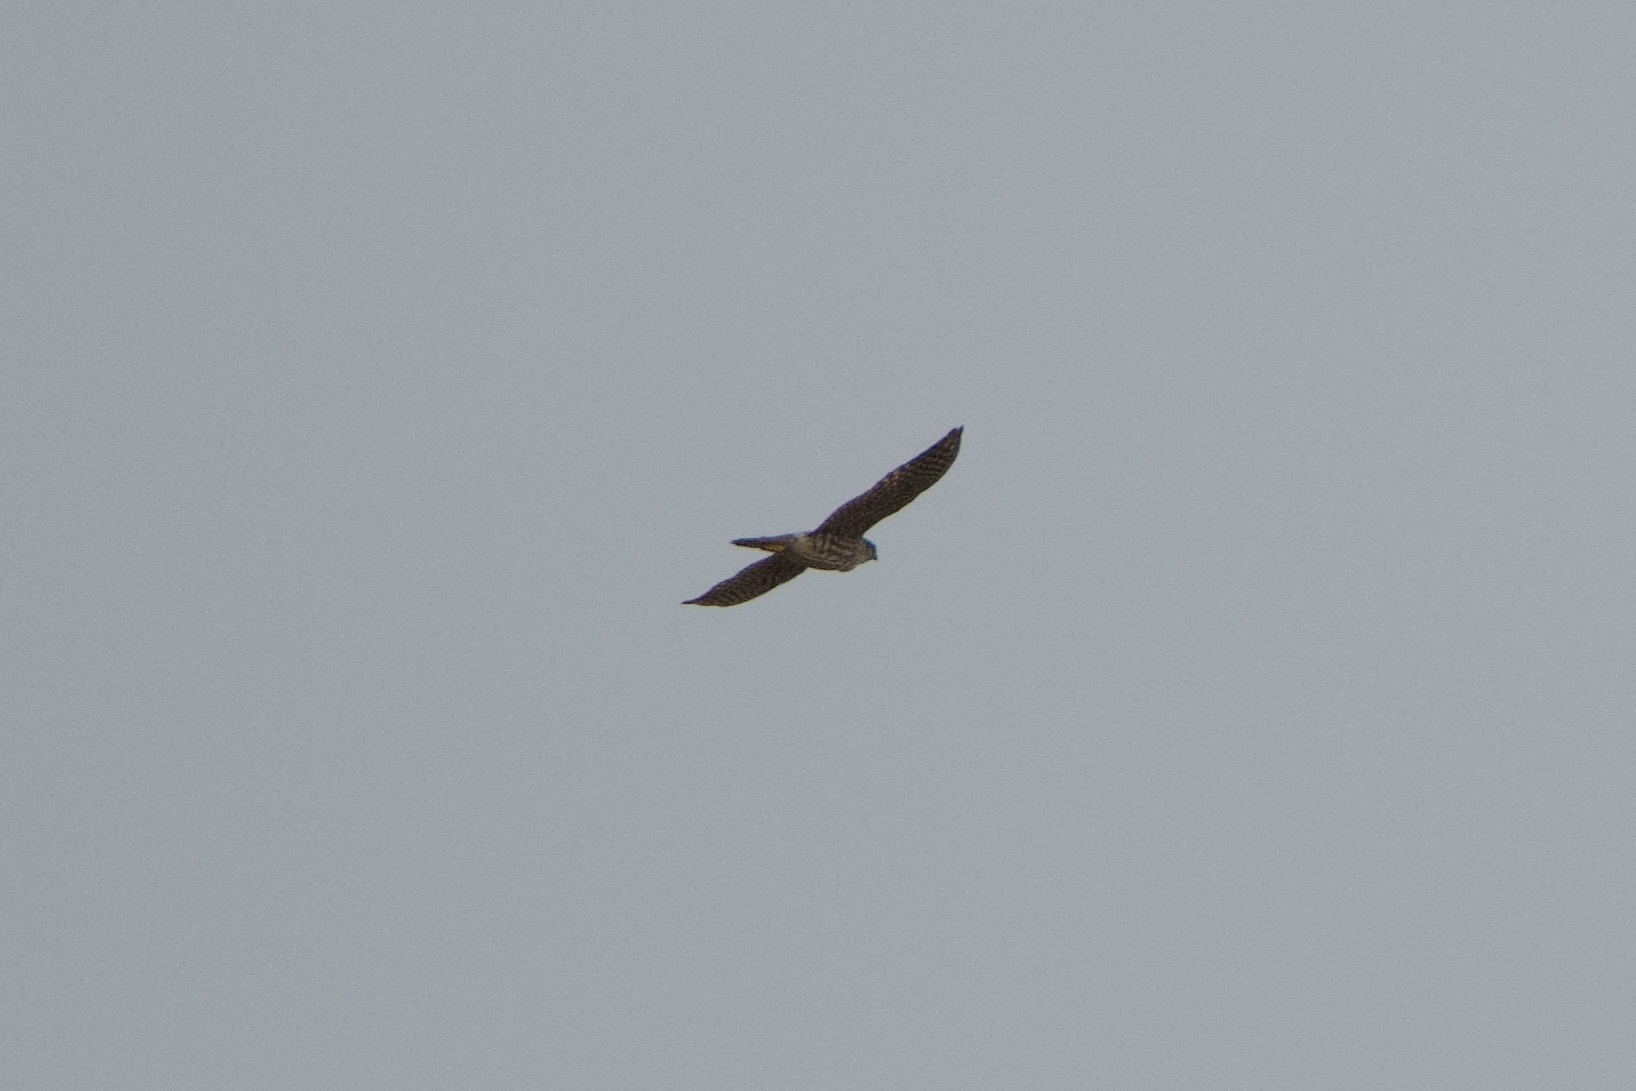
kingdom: Animalia
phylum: Chordata
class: Aves
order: Falconiformes
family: Falconidae
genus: Falco
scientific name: Falco columbarius
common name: Merlin
